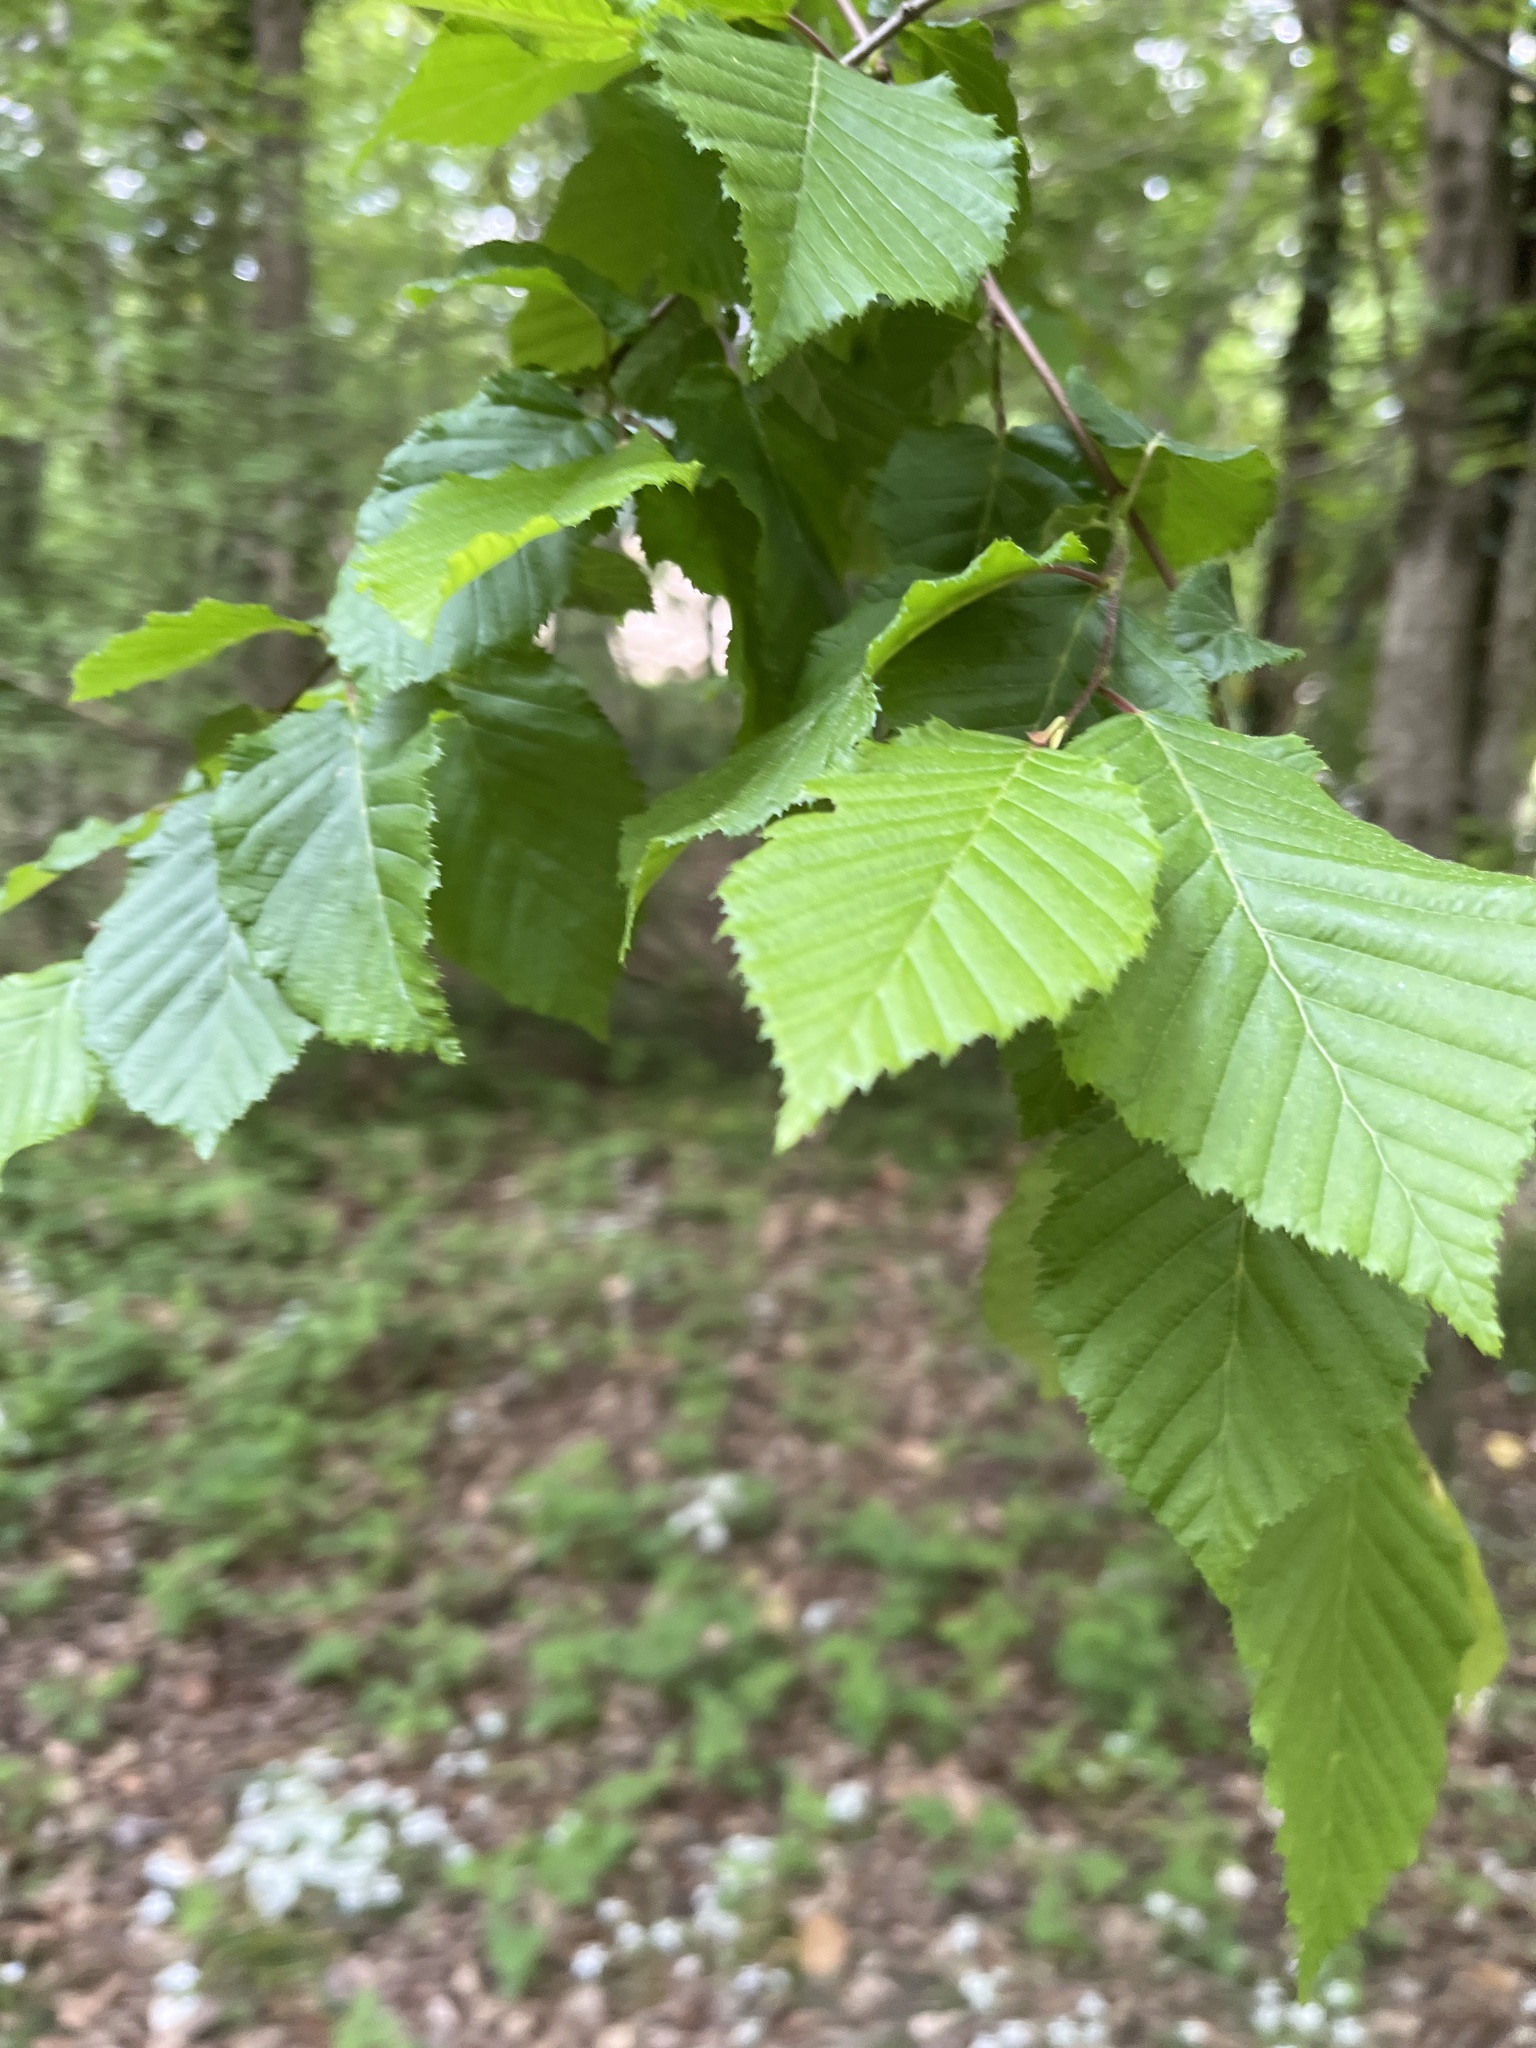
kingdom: Plantae
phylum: Tracheophyta
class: Magnoliopsida
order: Fagales
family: Betulaceae
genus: Carpinus
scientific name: Carpinus betulus
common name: Hornbeam
